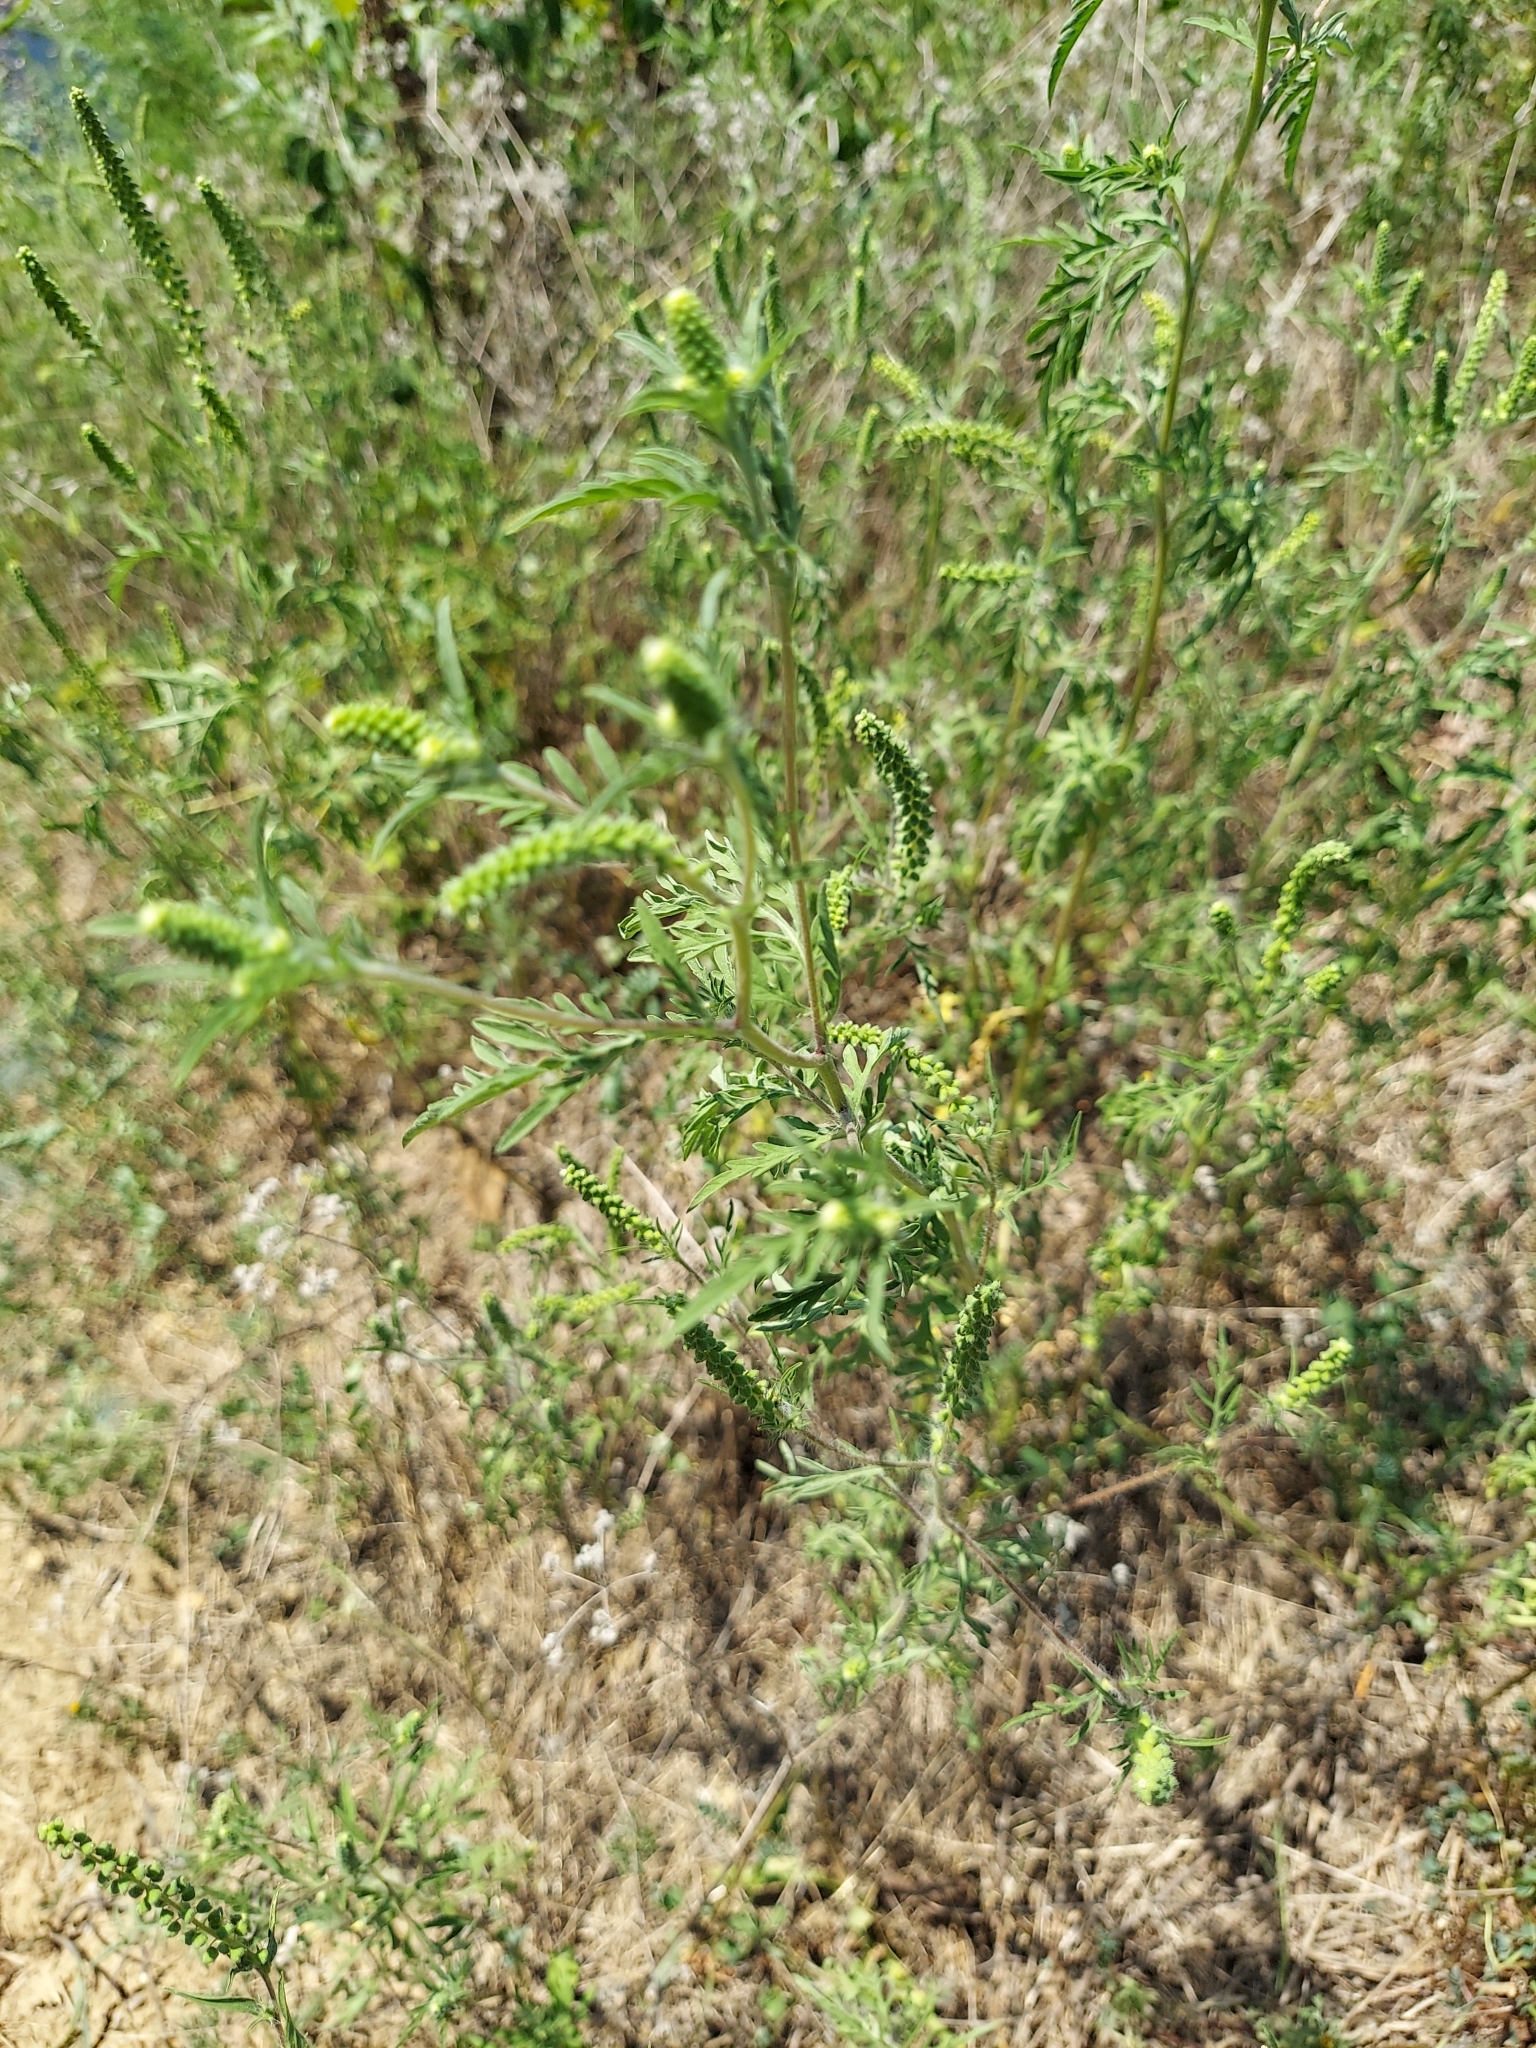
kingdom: Plantae
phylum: Tracheophyta
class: Magnoliopsida
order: Asterales
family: Asteraceae
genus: Ambrosia
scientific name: Ambrosia artemisiifolia
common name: Annual ragweed
